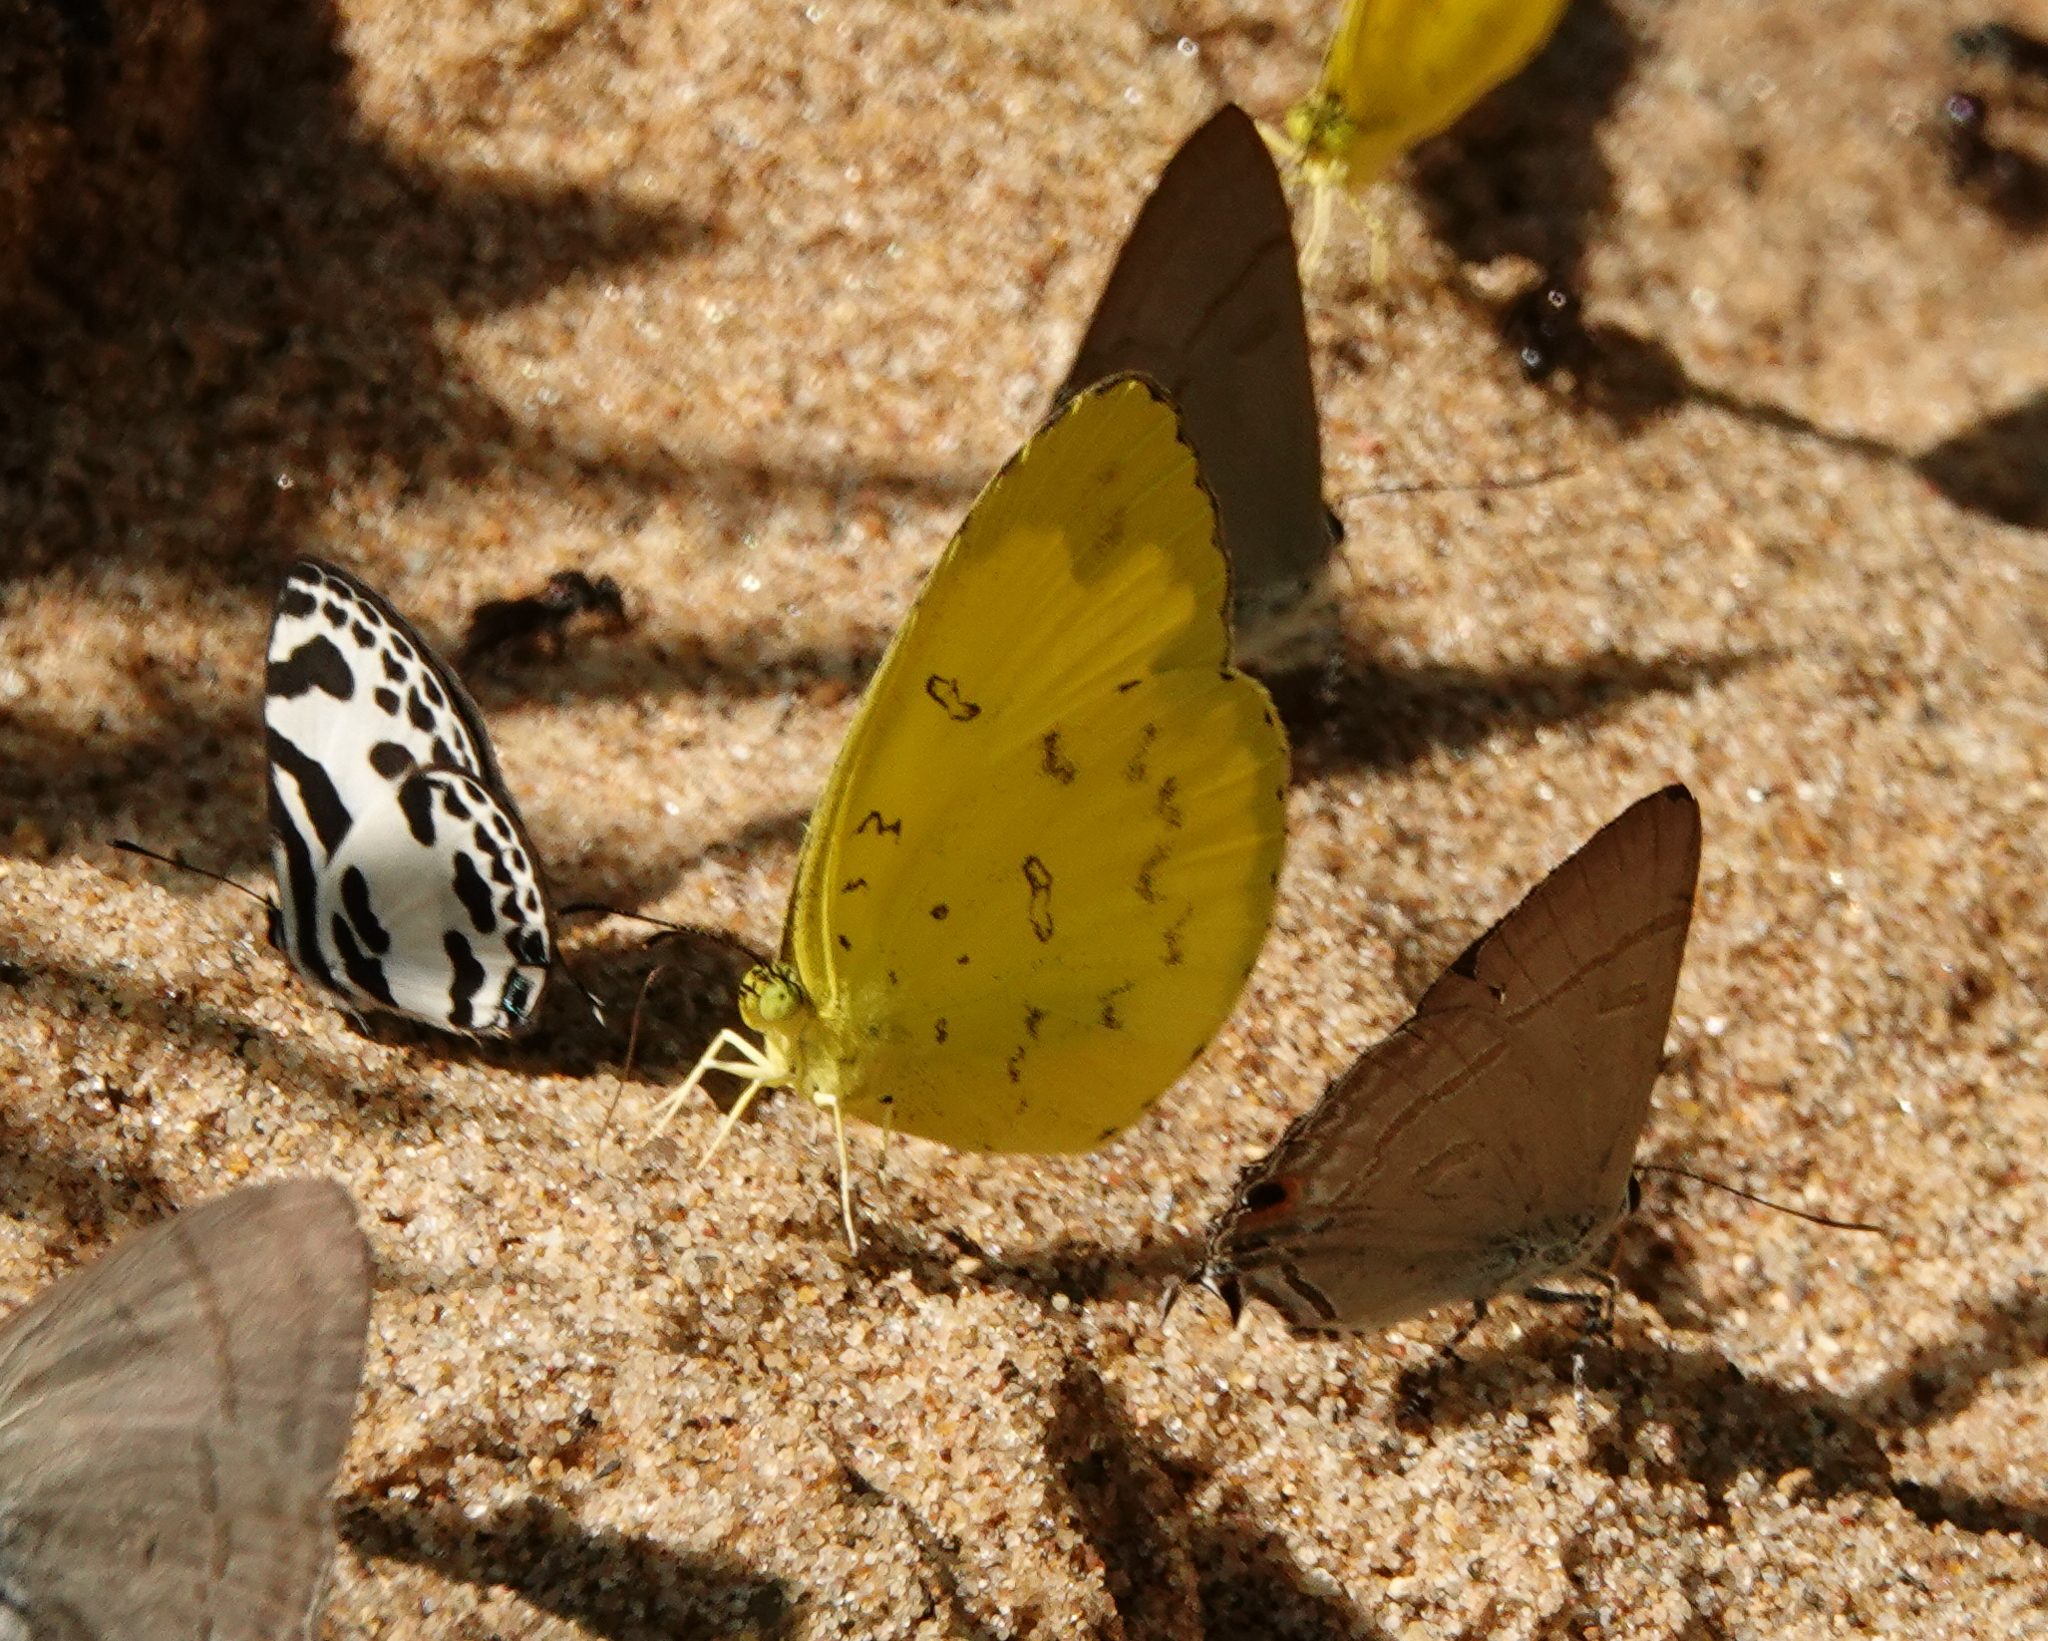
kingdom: Animalia
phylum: Arthropoda
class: Insecta
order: Lepidoptera
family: Pieridae
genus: Eurema
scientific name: Eurema blanda
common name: Three-spot grass yellow
